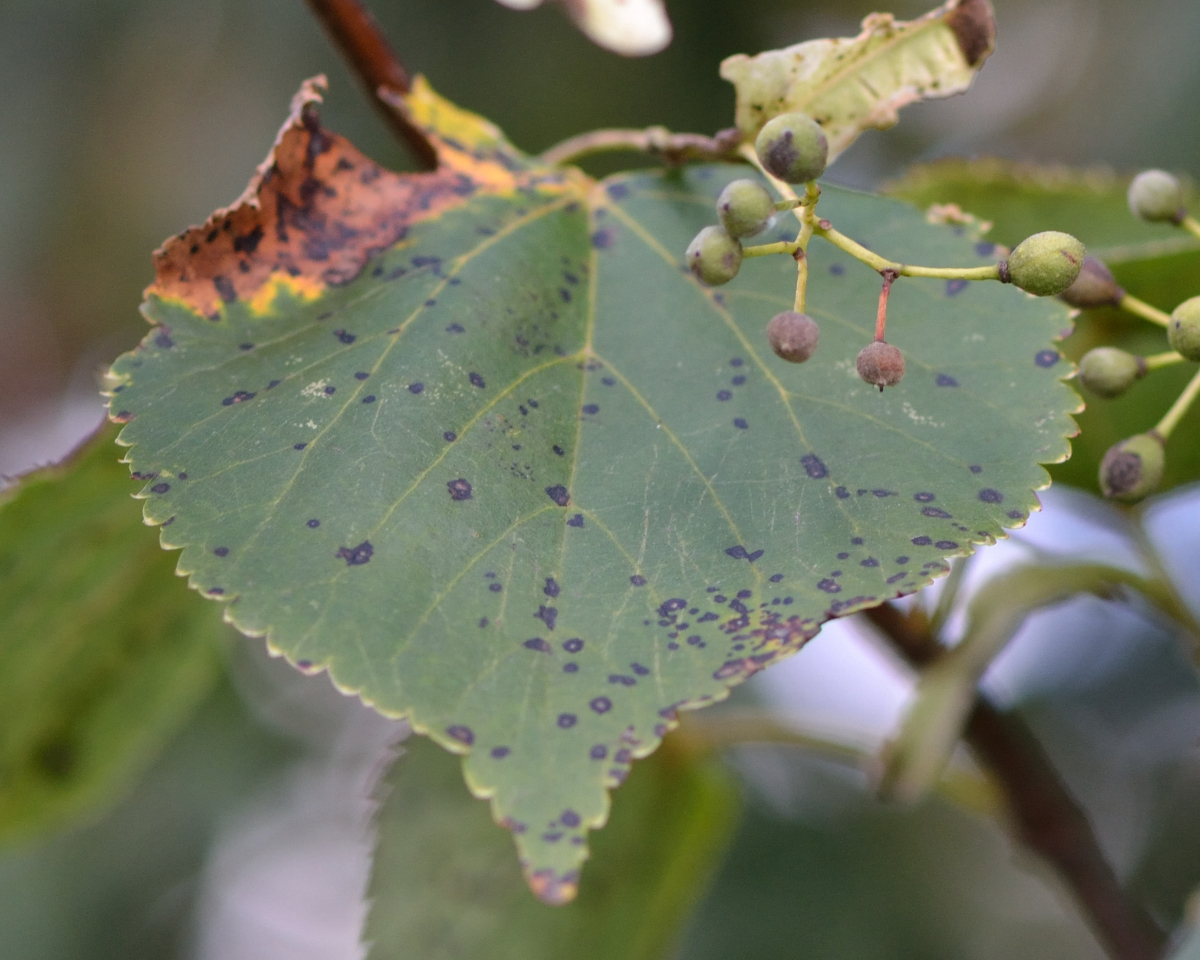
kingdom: Plantae
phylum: Tracheophyta
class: Magnoliopsida
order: Malvales
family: Malvaceae
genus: Tilia
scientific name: Tilia cordata
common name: Small-leaved lime
